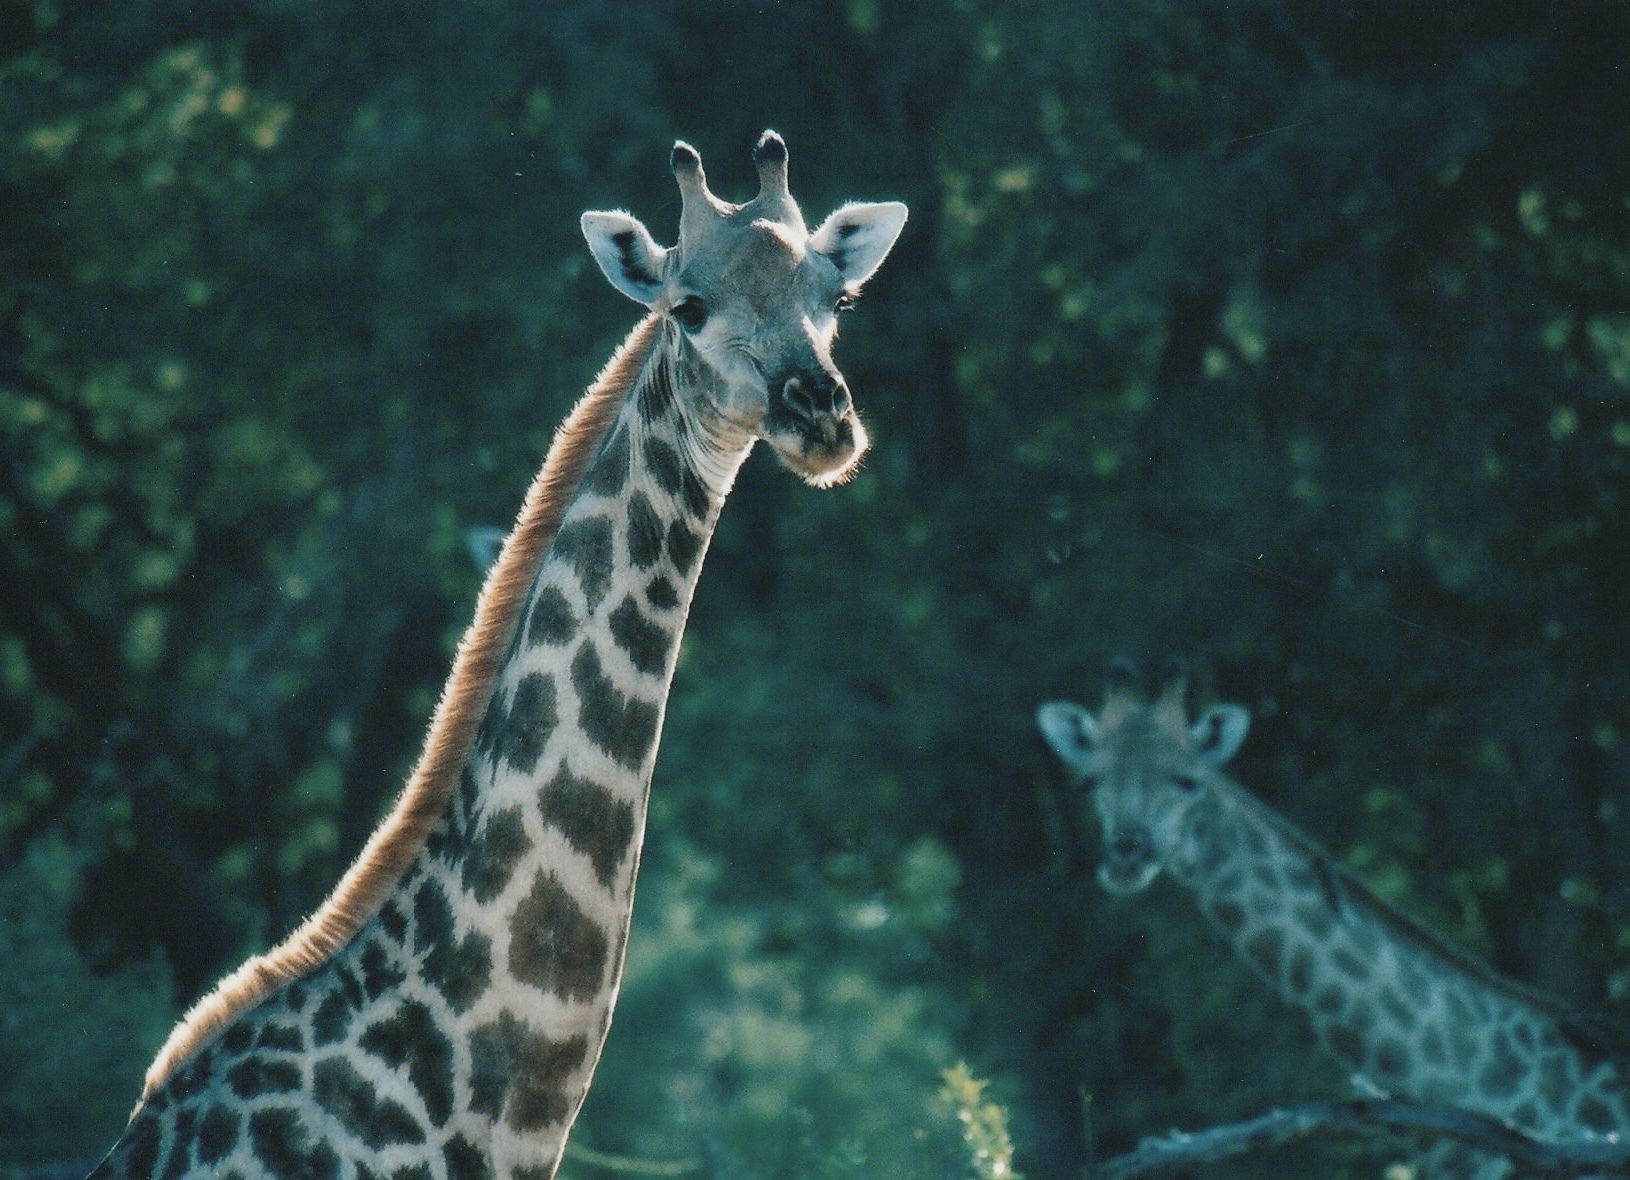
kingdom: Animalia
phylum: Chordata
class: Mammalia
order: Artiodactyla
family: Giraffidae
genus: Giraffa
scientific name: Giraffa giraffa
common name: Southern giraffe
